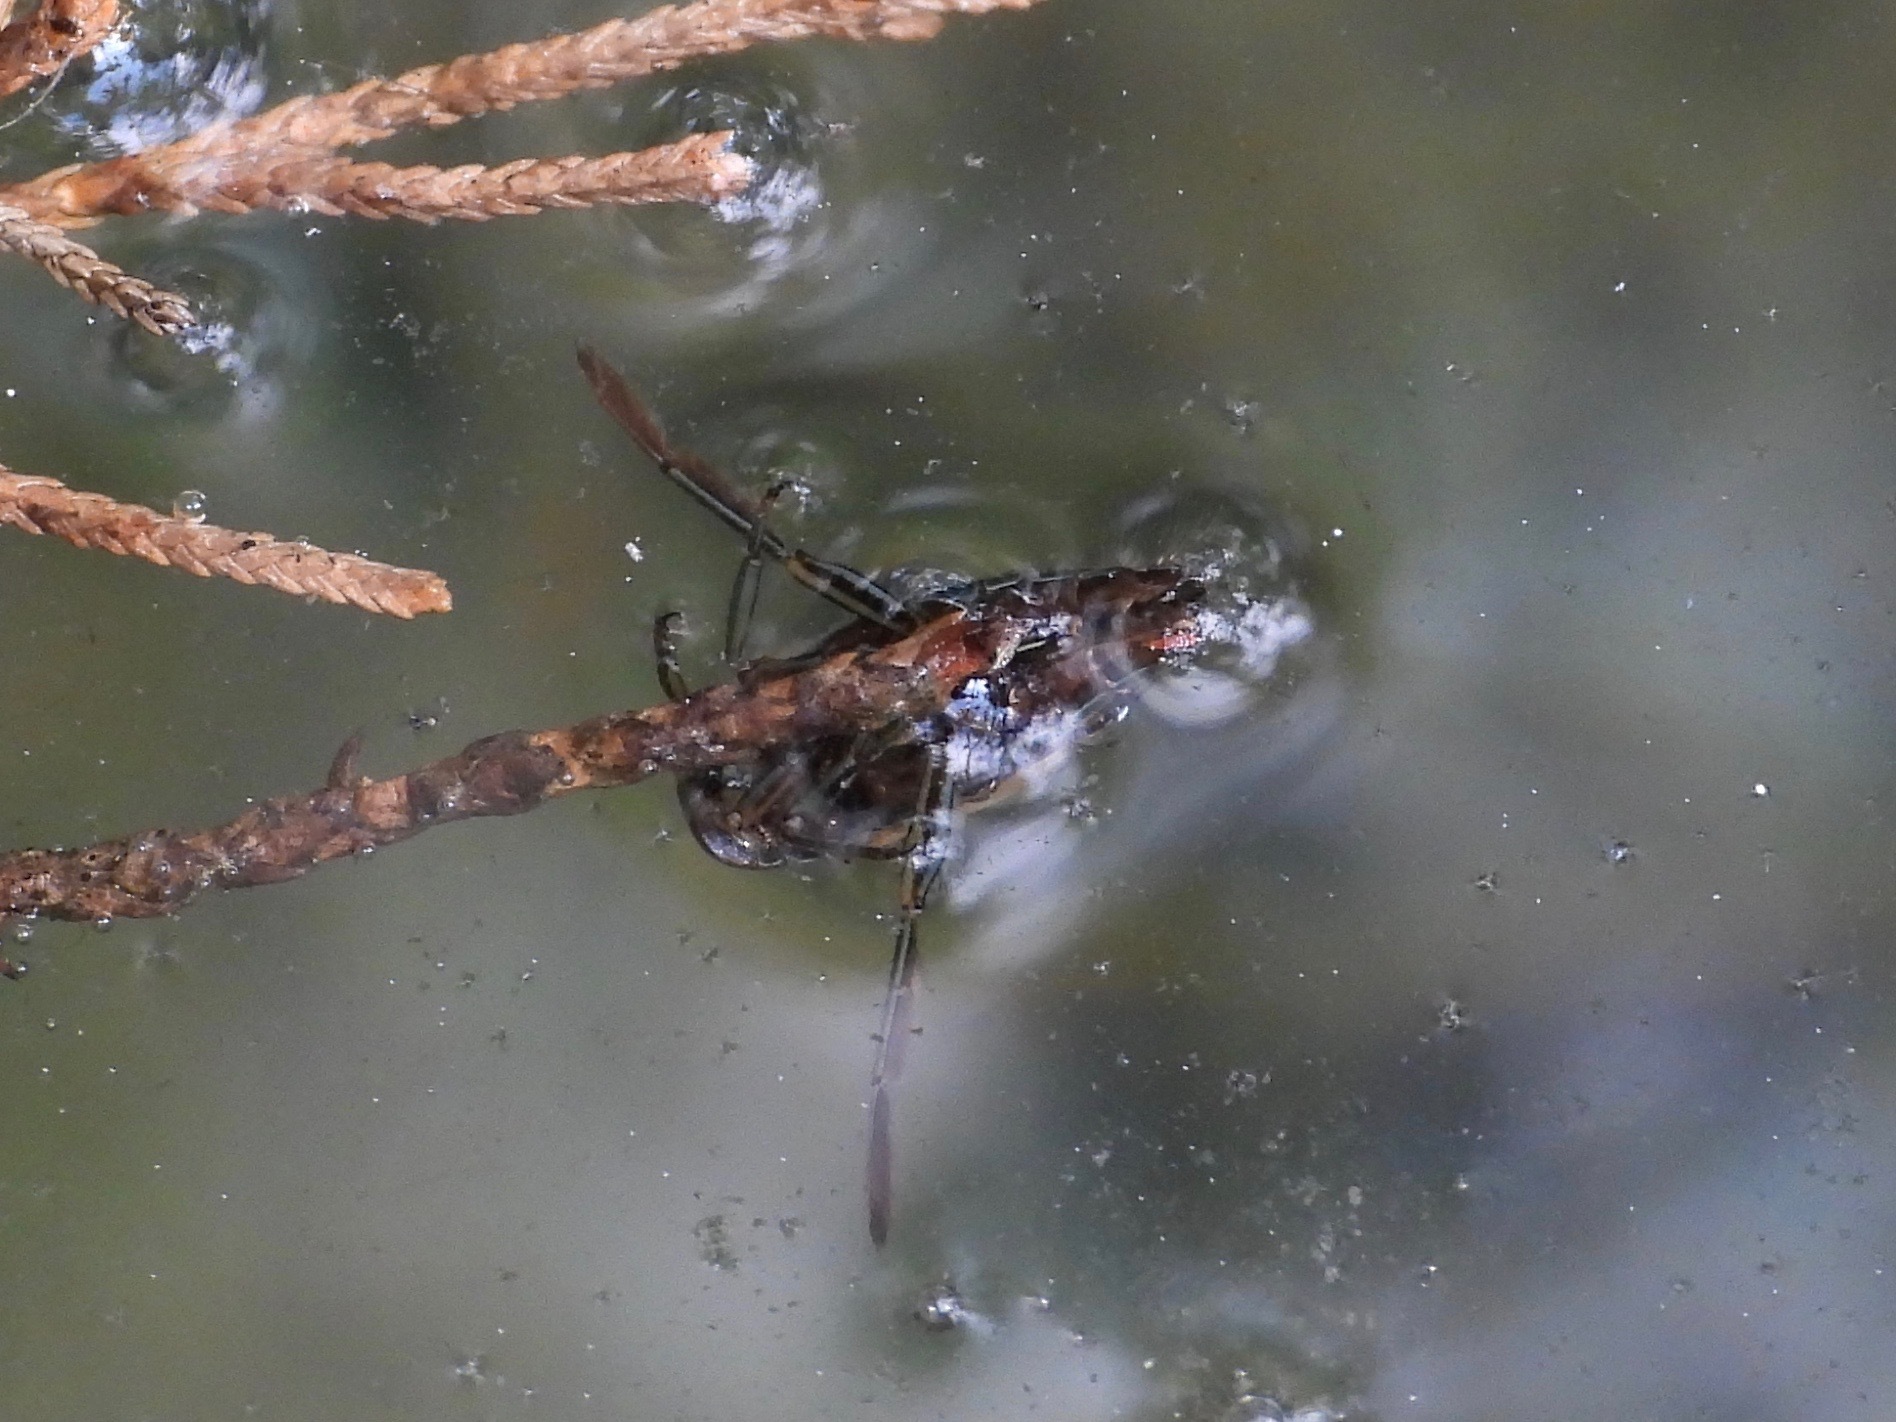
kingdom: Animalia
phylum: Arthropoda
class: Insecta
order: Hemiptera
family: Notonectidae
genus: Notonecta
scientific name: Notonecta
